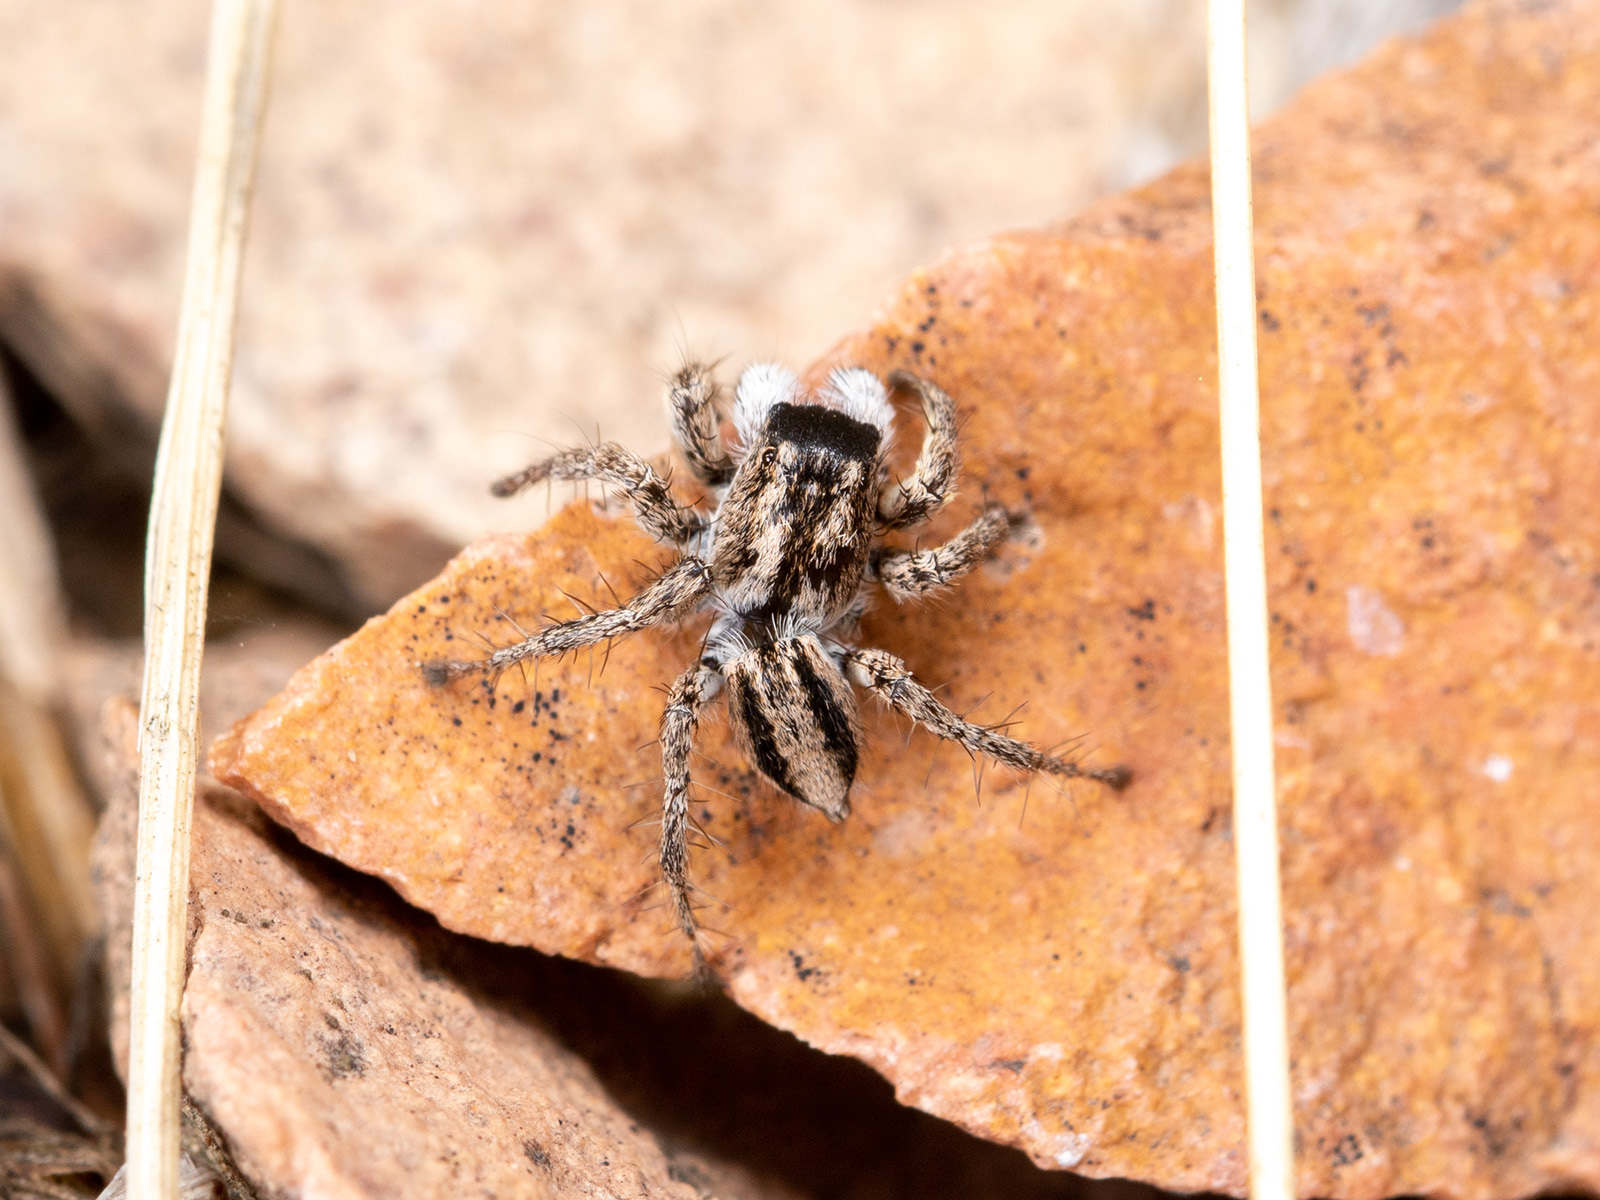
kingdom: Animalia
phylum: Arthropoda
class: Arachnida
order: Araneae
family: Salticidae
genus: Aelurillus
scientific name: Aelurillus m-nigrum
